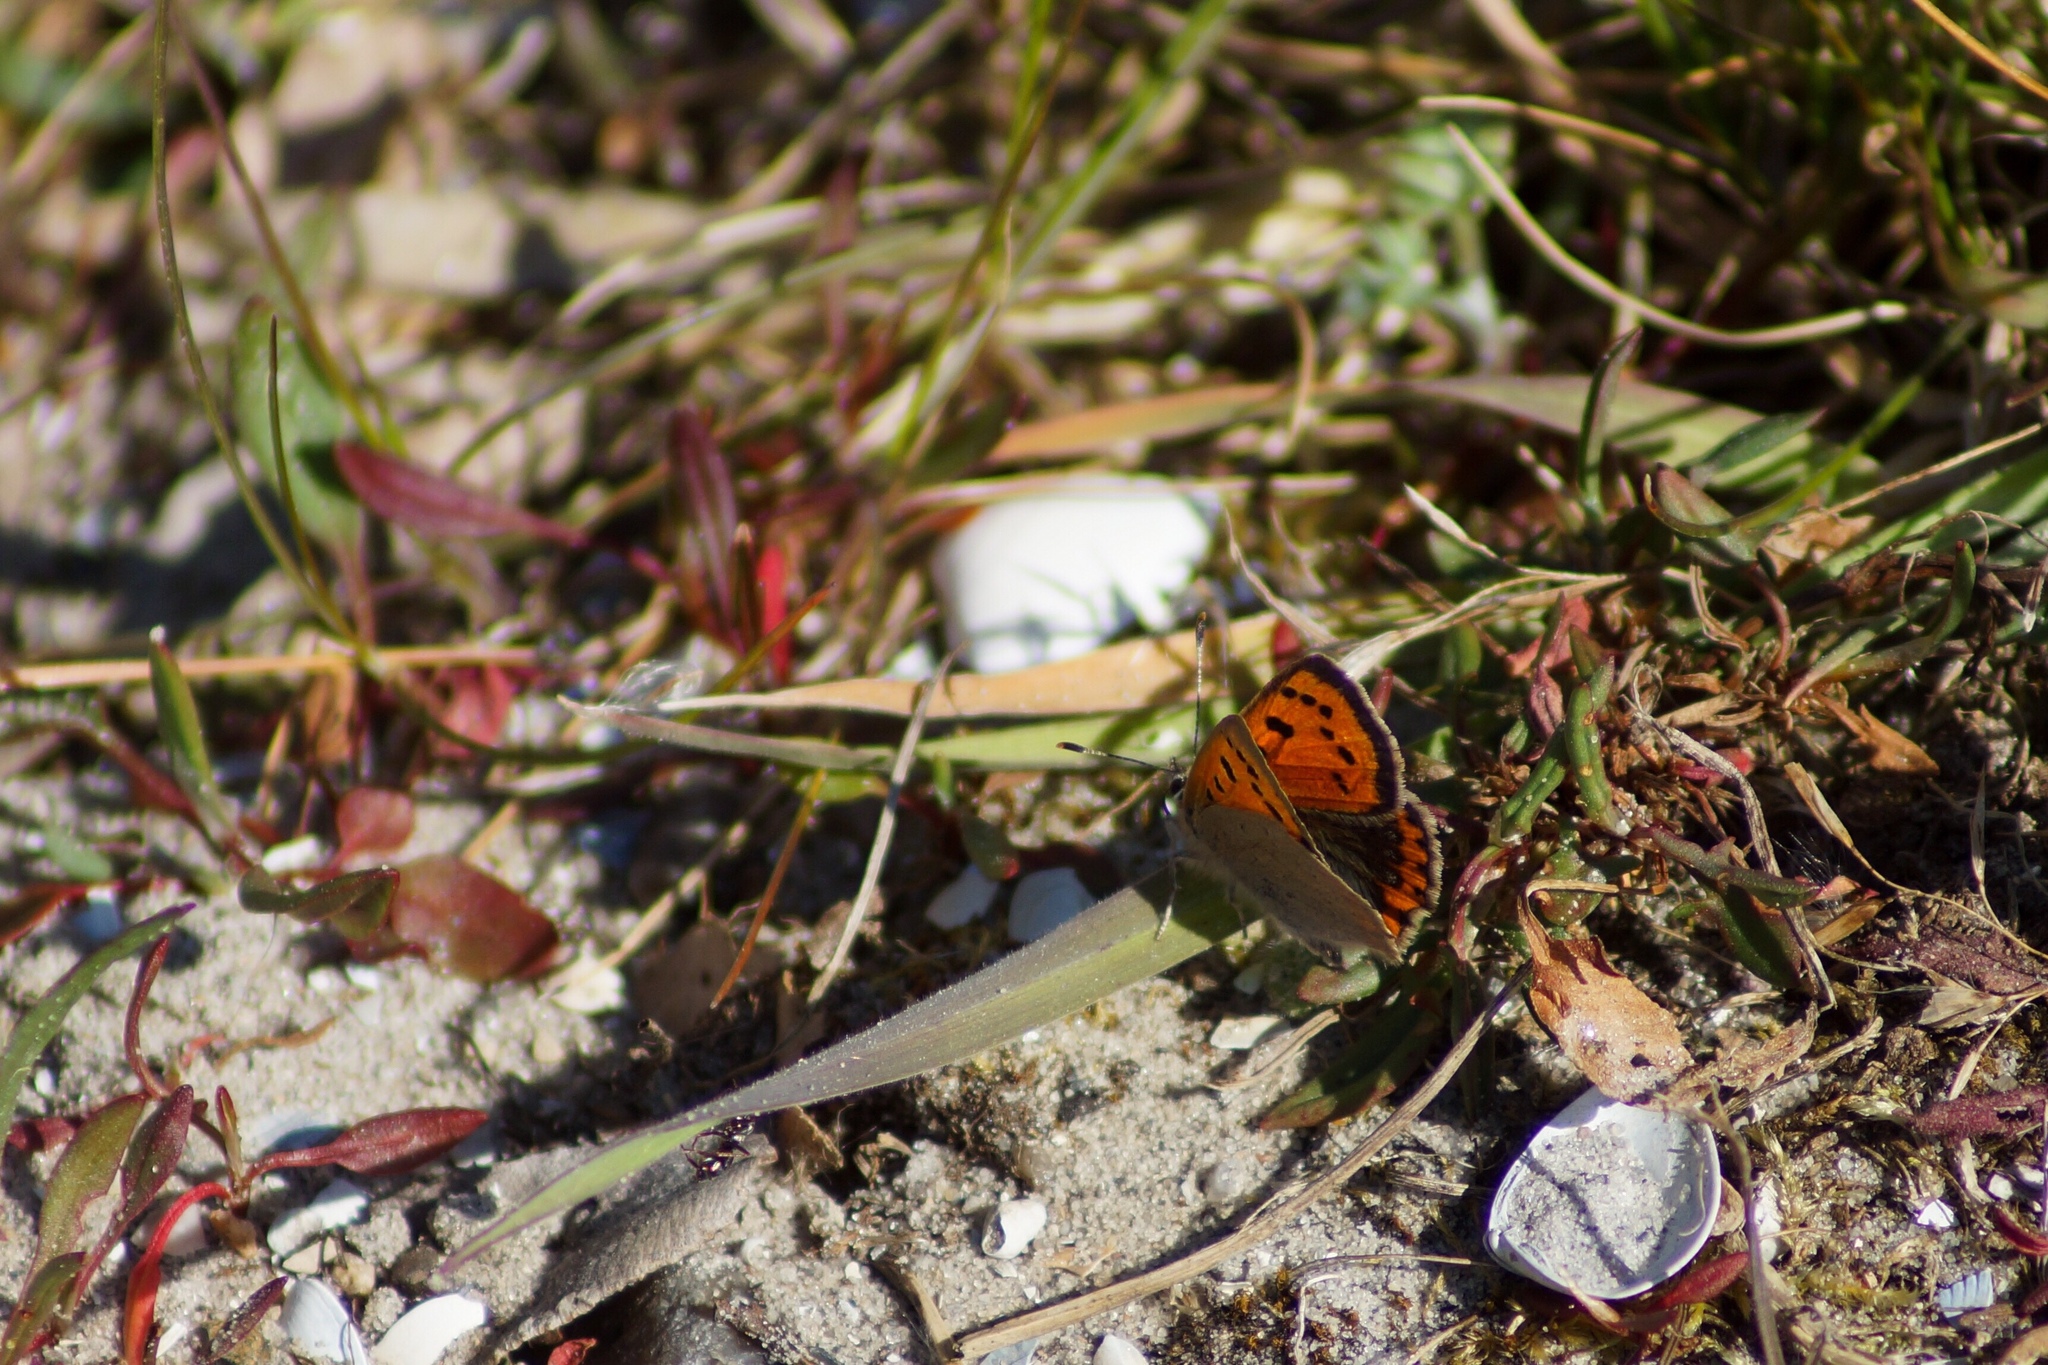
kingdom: Animalia
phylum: Arthropoda
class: Insecta
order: Lepidoptera
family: Lycaenidae
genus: Lycaena
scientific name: Lycaena phlaeas
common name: Small copper
